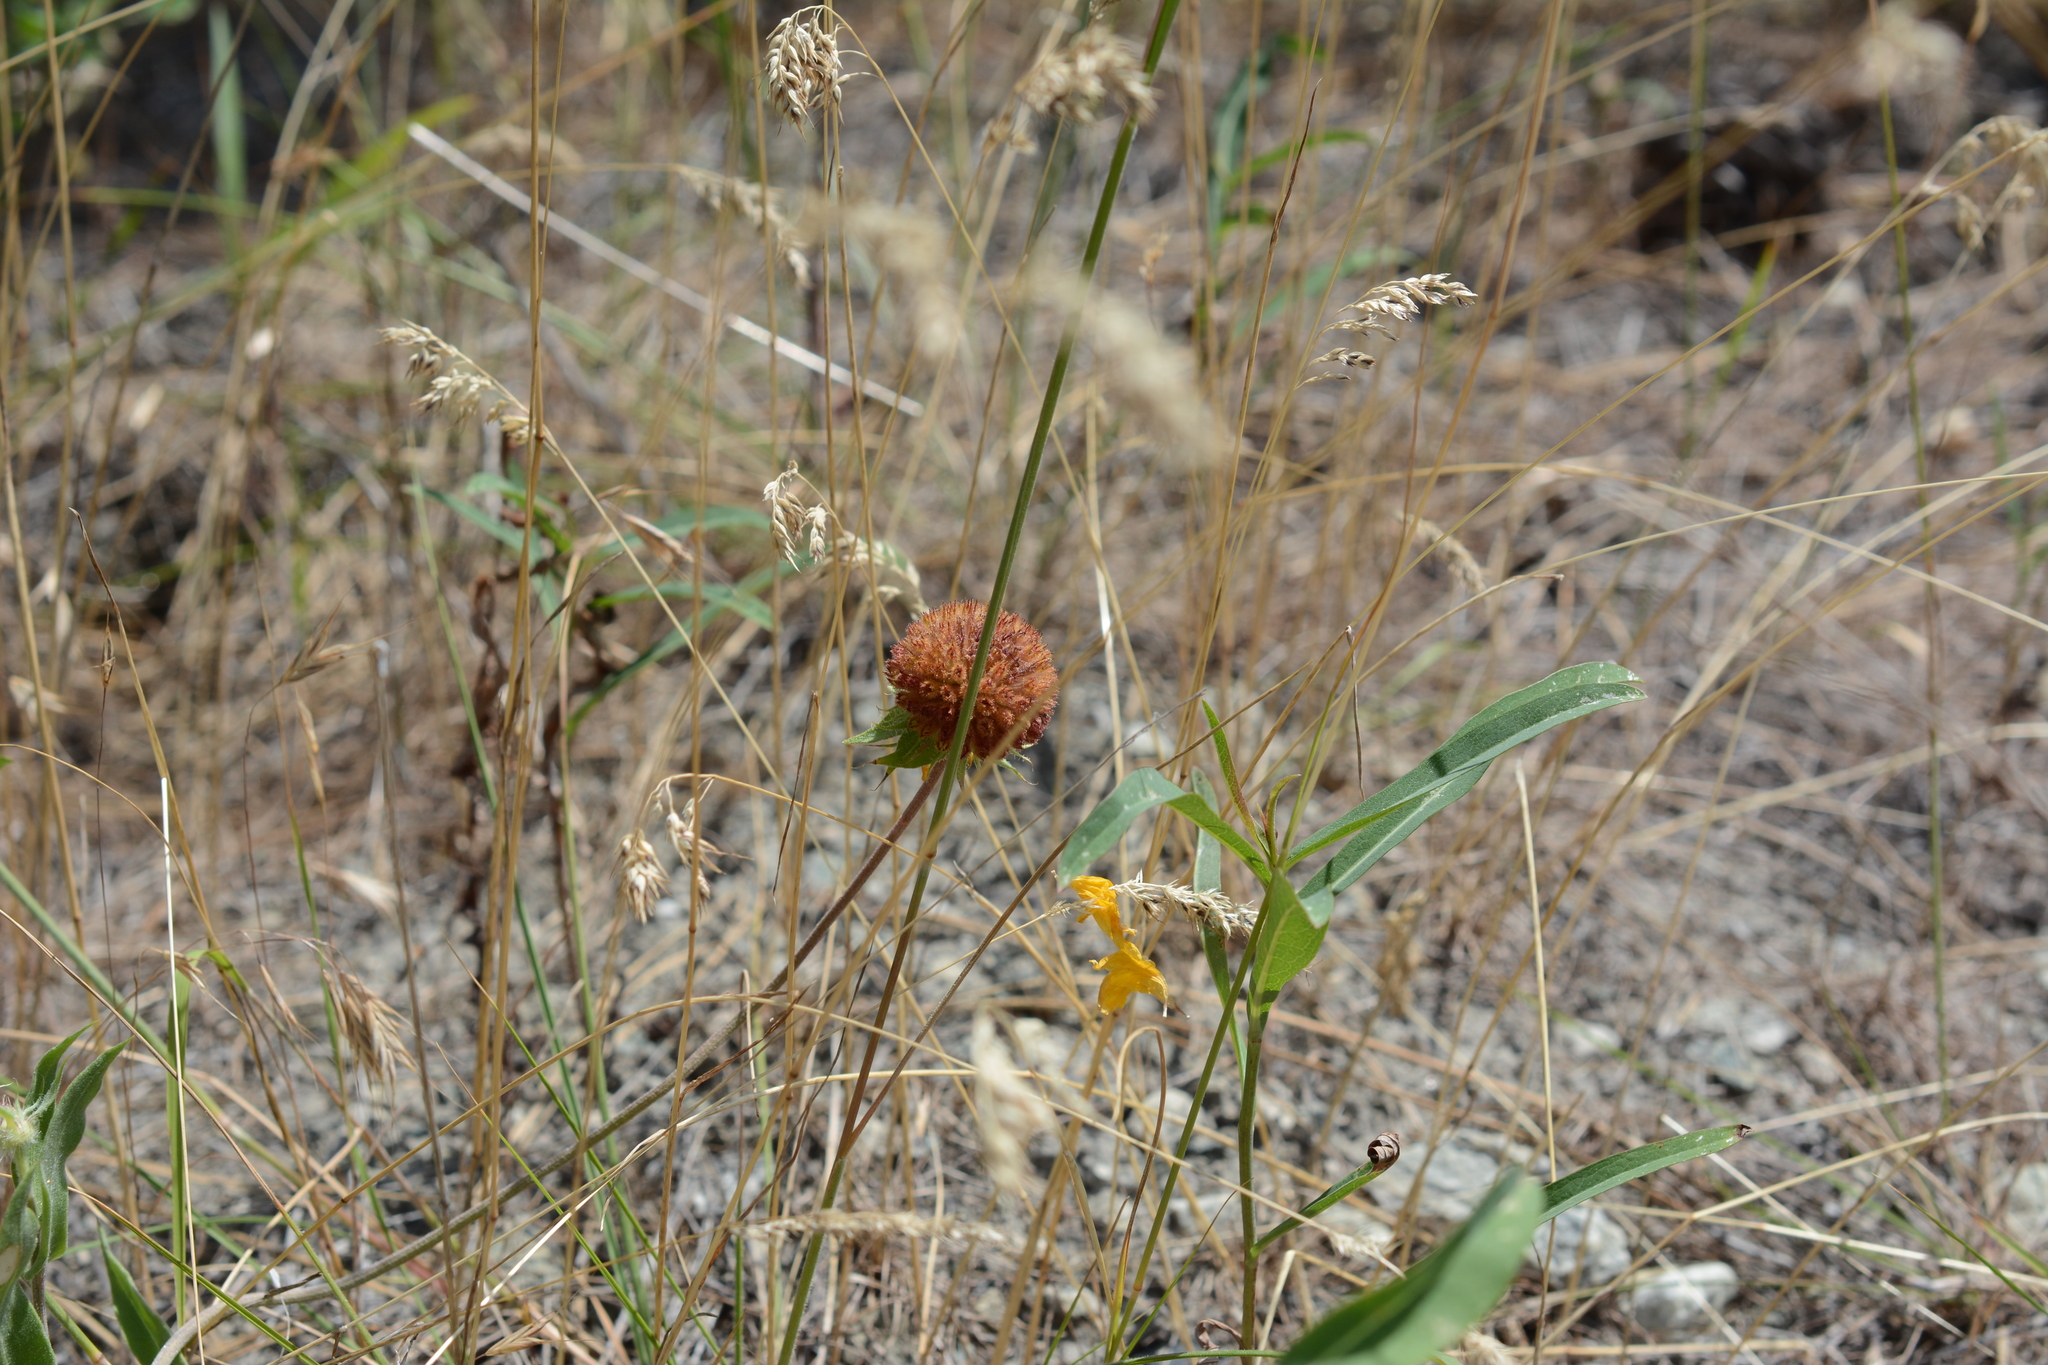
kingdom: Plantae
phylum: Tracheophyta
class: Magnoliopsida
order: Asterales
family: Asteraceae
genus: Gaillardia
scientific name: Gaillardia aristata
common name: Blanket-flower
